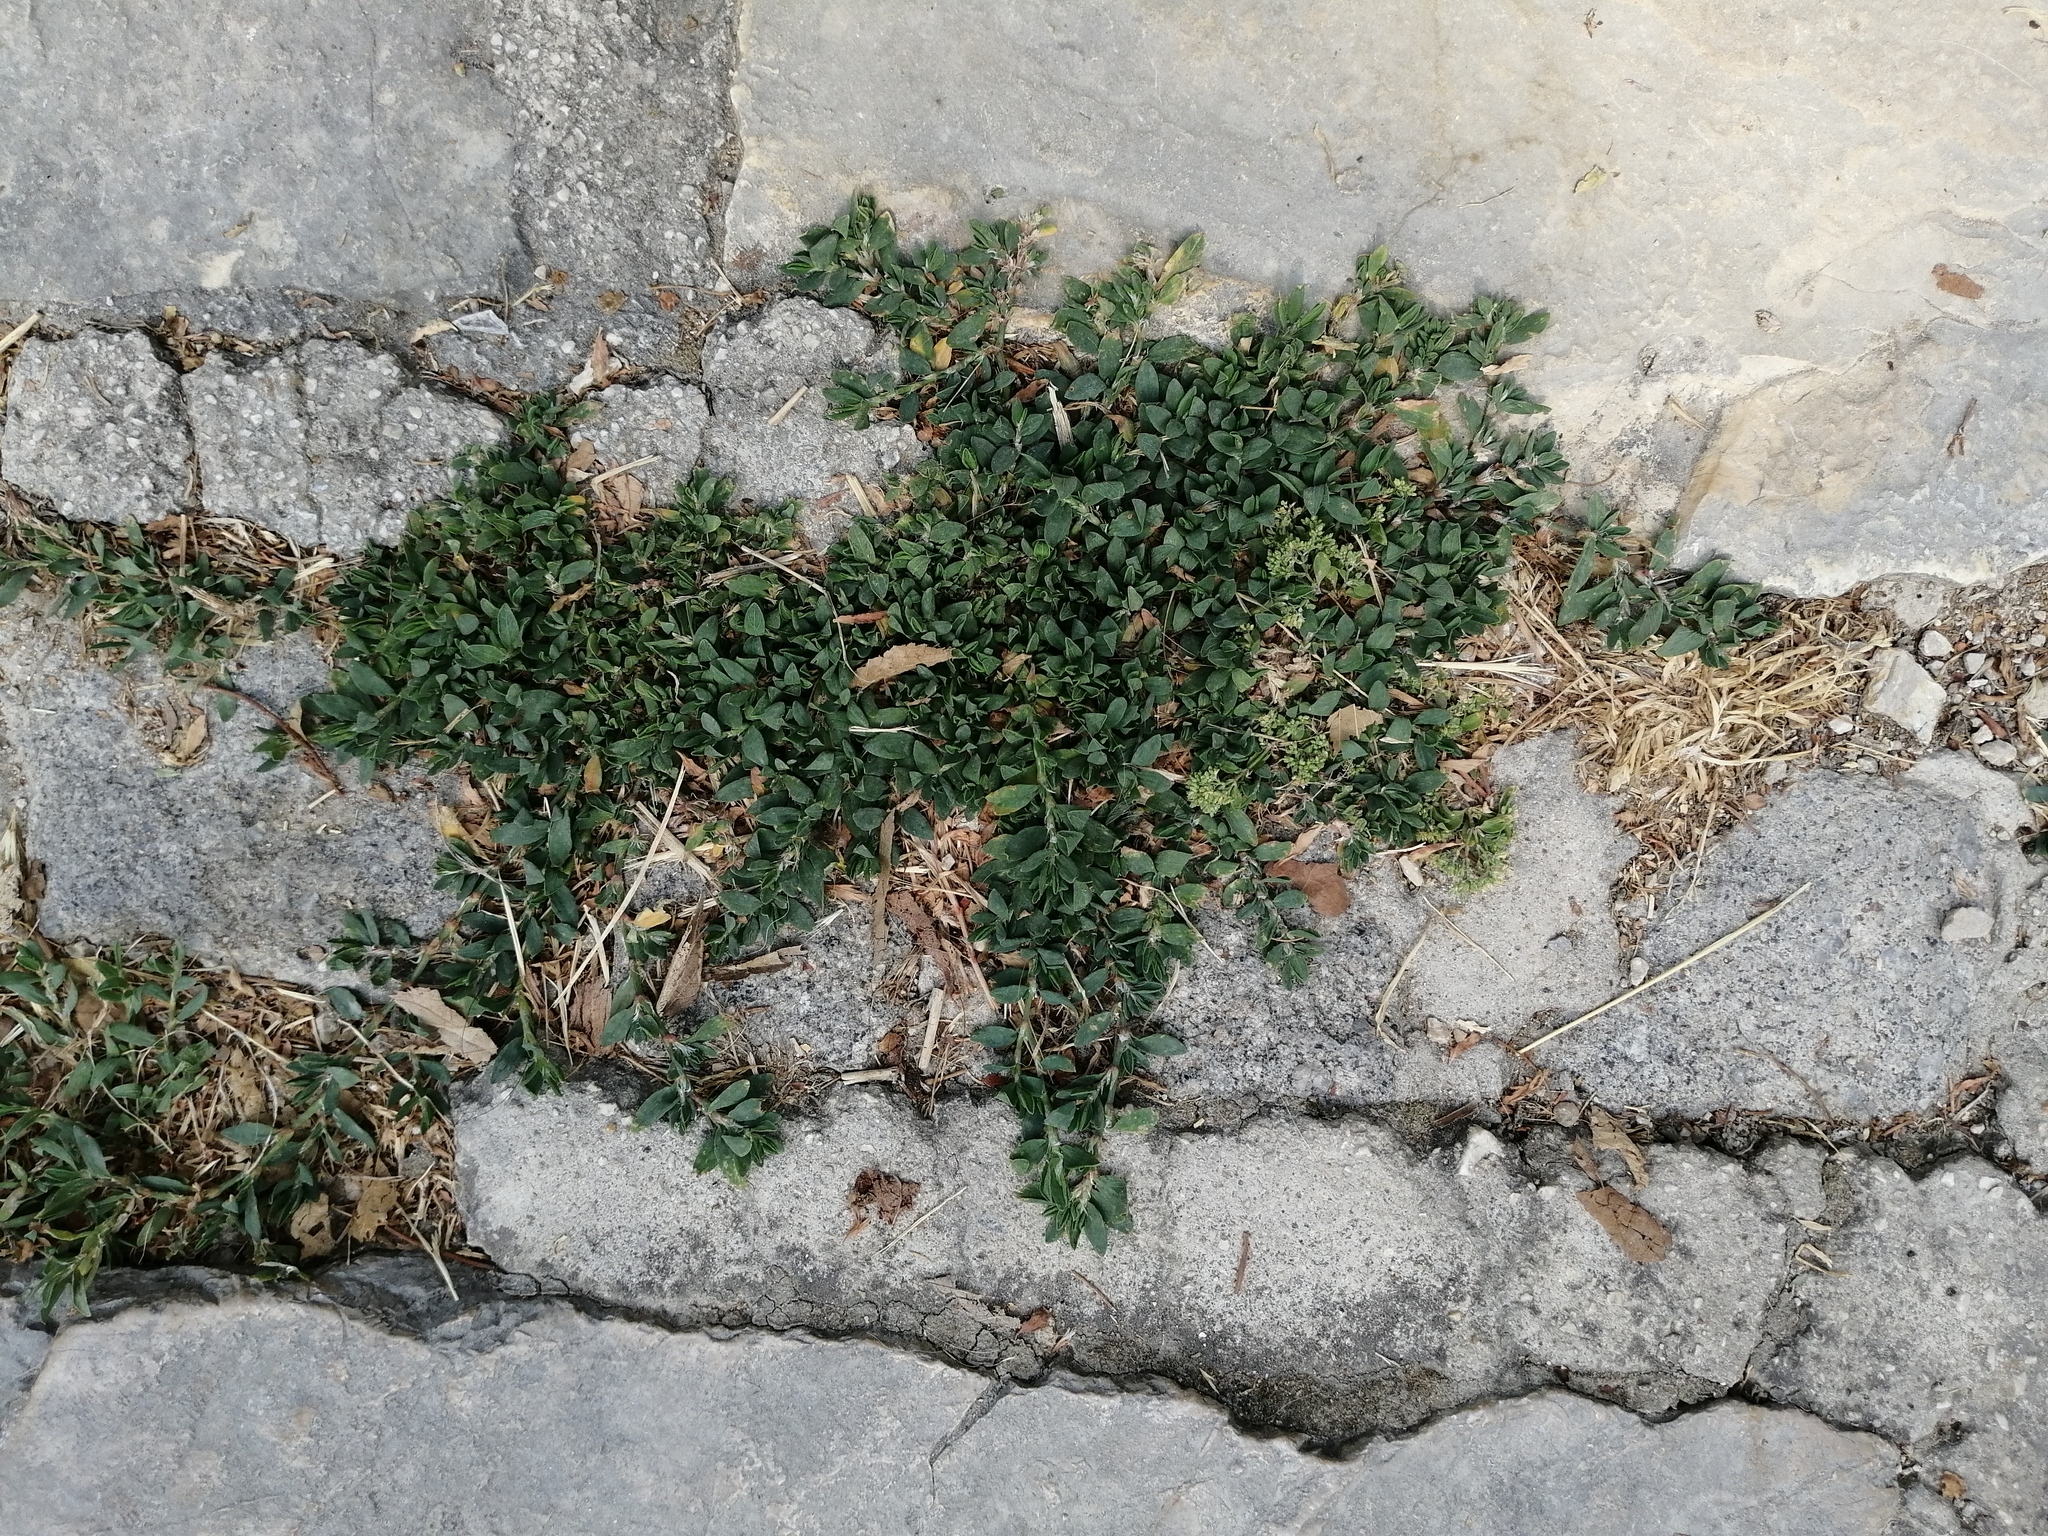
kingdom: Plantae
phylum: Tracheophyta
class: Magnoliopsida
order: Caryophyllales
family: Polygonaceae
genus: Polygonum
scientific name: Polygonum arenastrum
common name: Equal-leaved knotgrass
